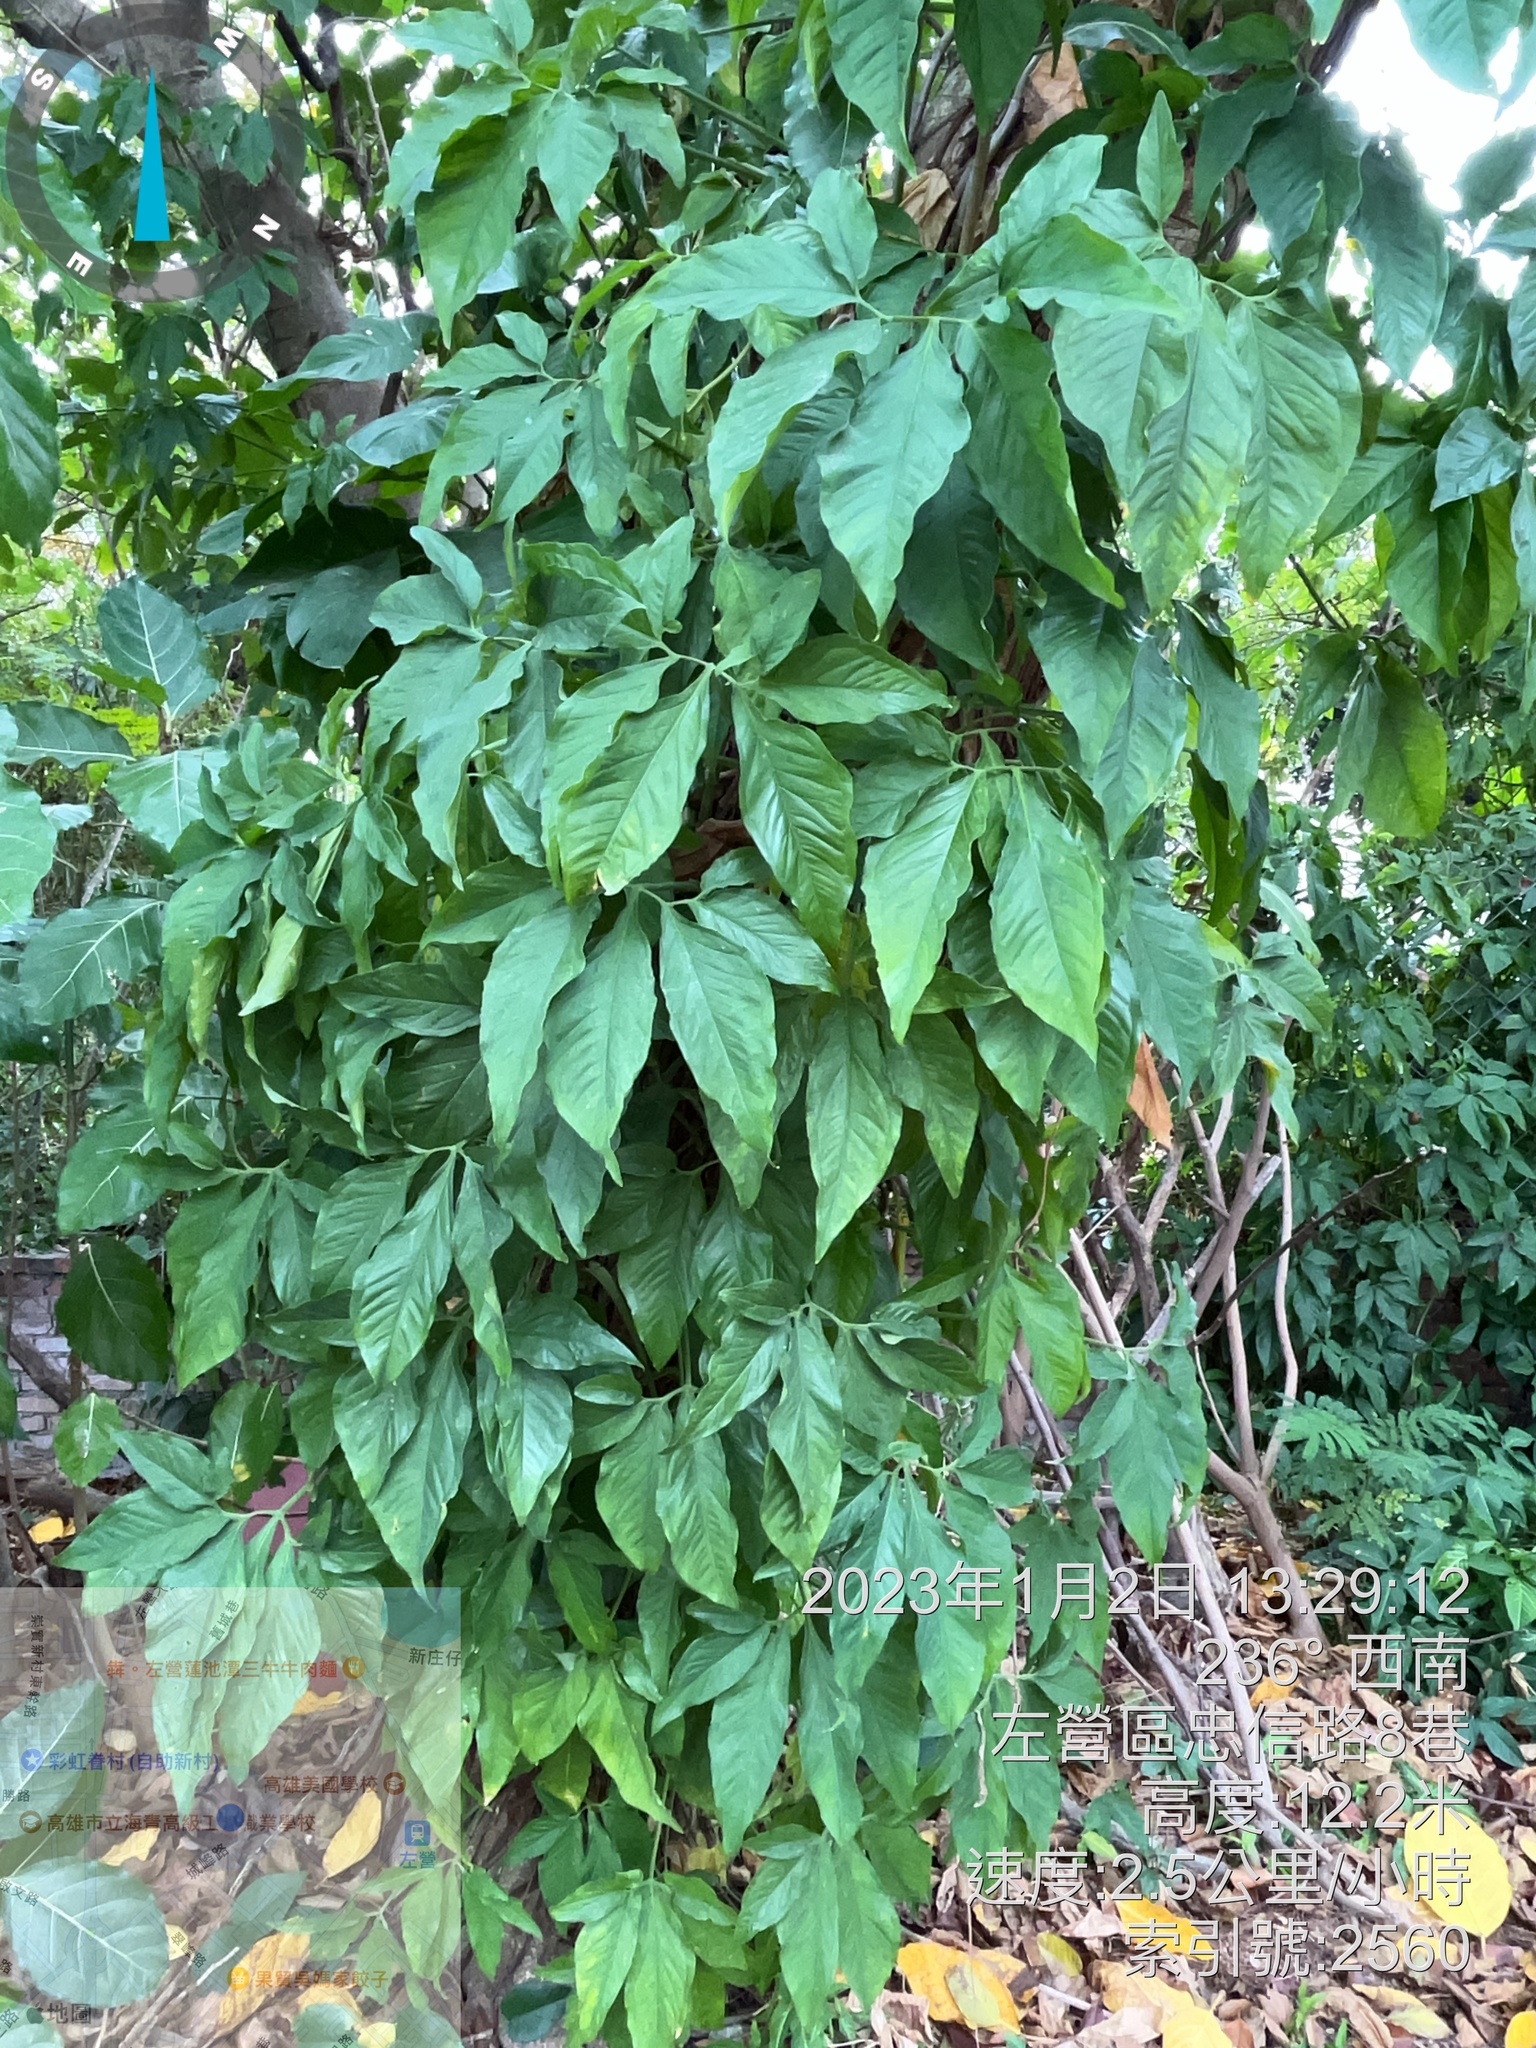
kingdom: Plantae
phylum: Tracheophyta
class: Liliopsida
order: Alismatales
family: Araceae
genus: Syngonium
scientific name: Syngonium angustatum
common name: Fivefingers
